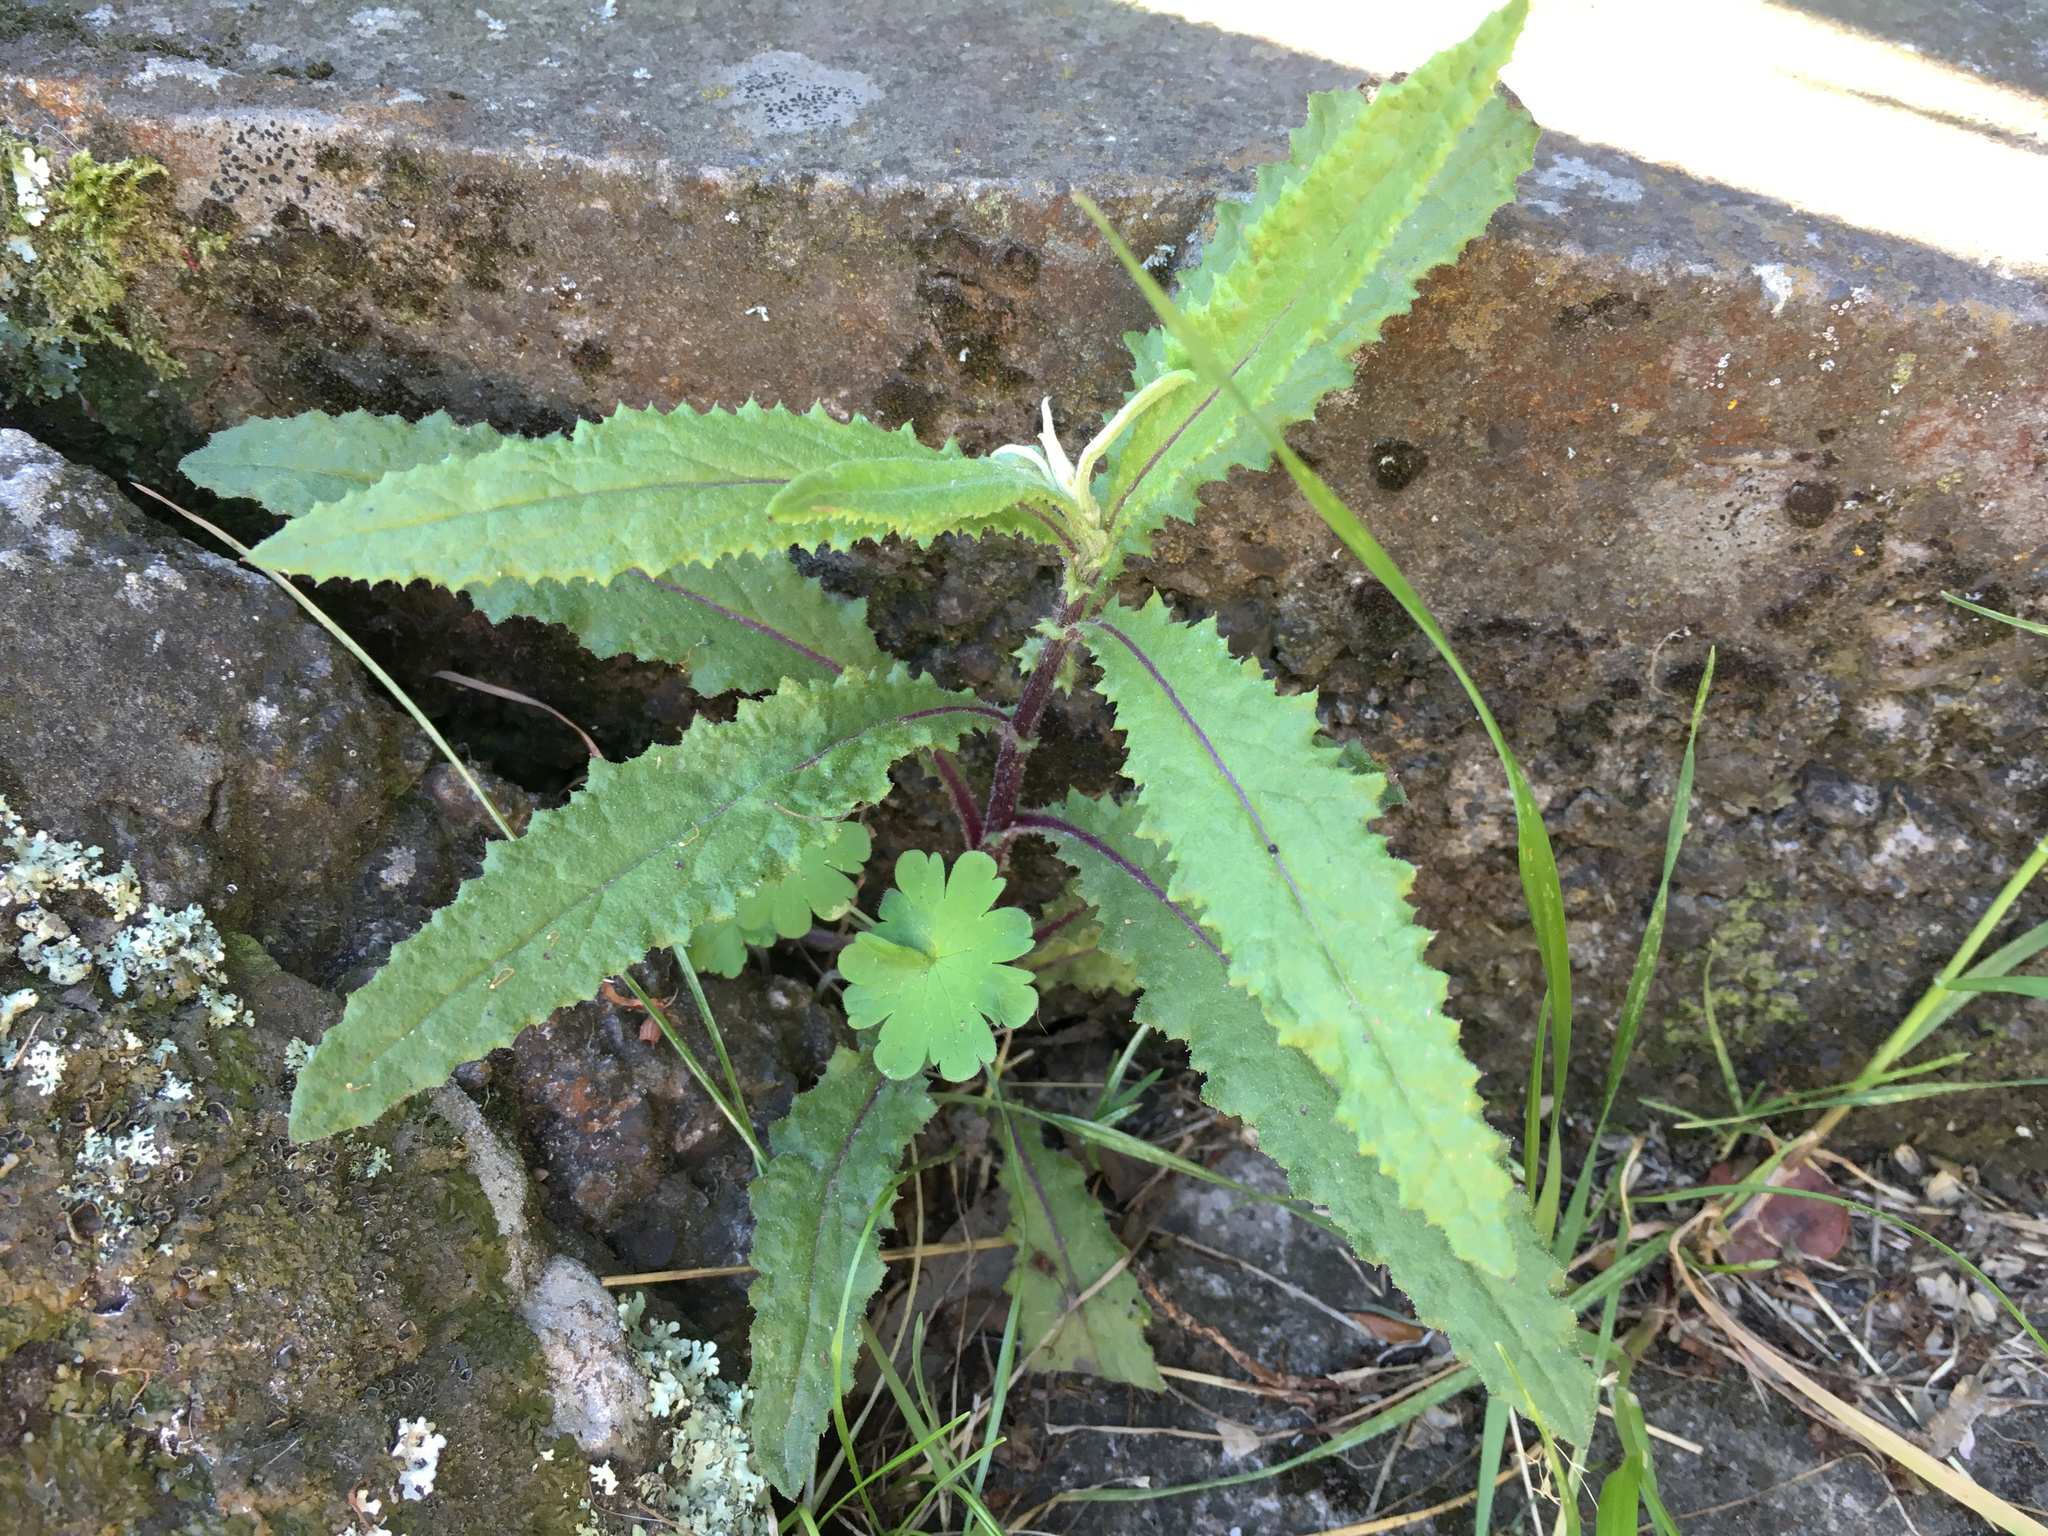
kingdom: Plantae
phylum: Tracheophyta
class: Magnoliopsida
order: Asterales
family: Asteraceae
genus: Senecio
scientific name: Senecio minimus
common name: Toothed fireweed
